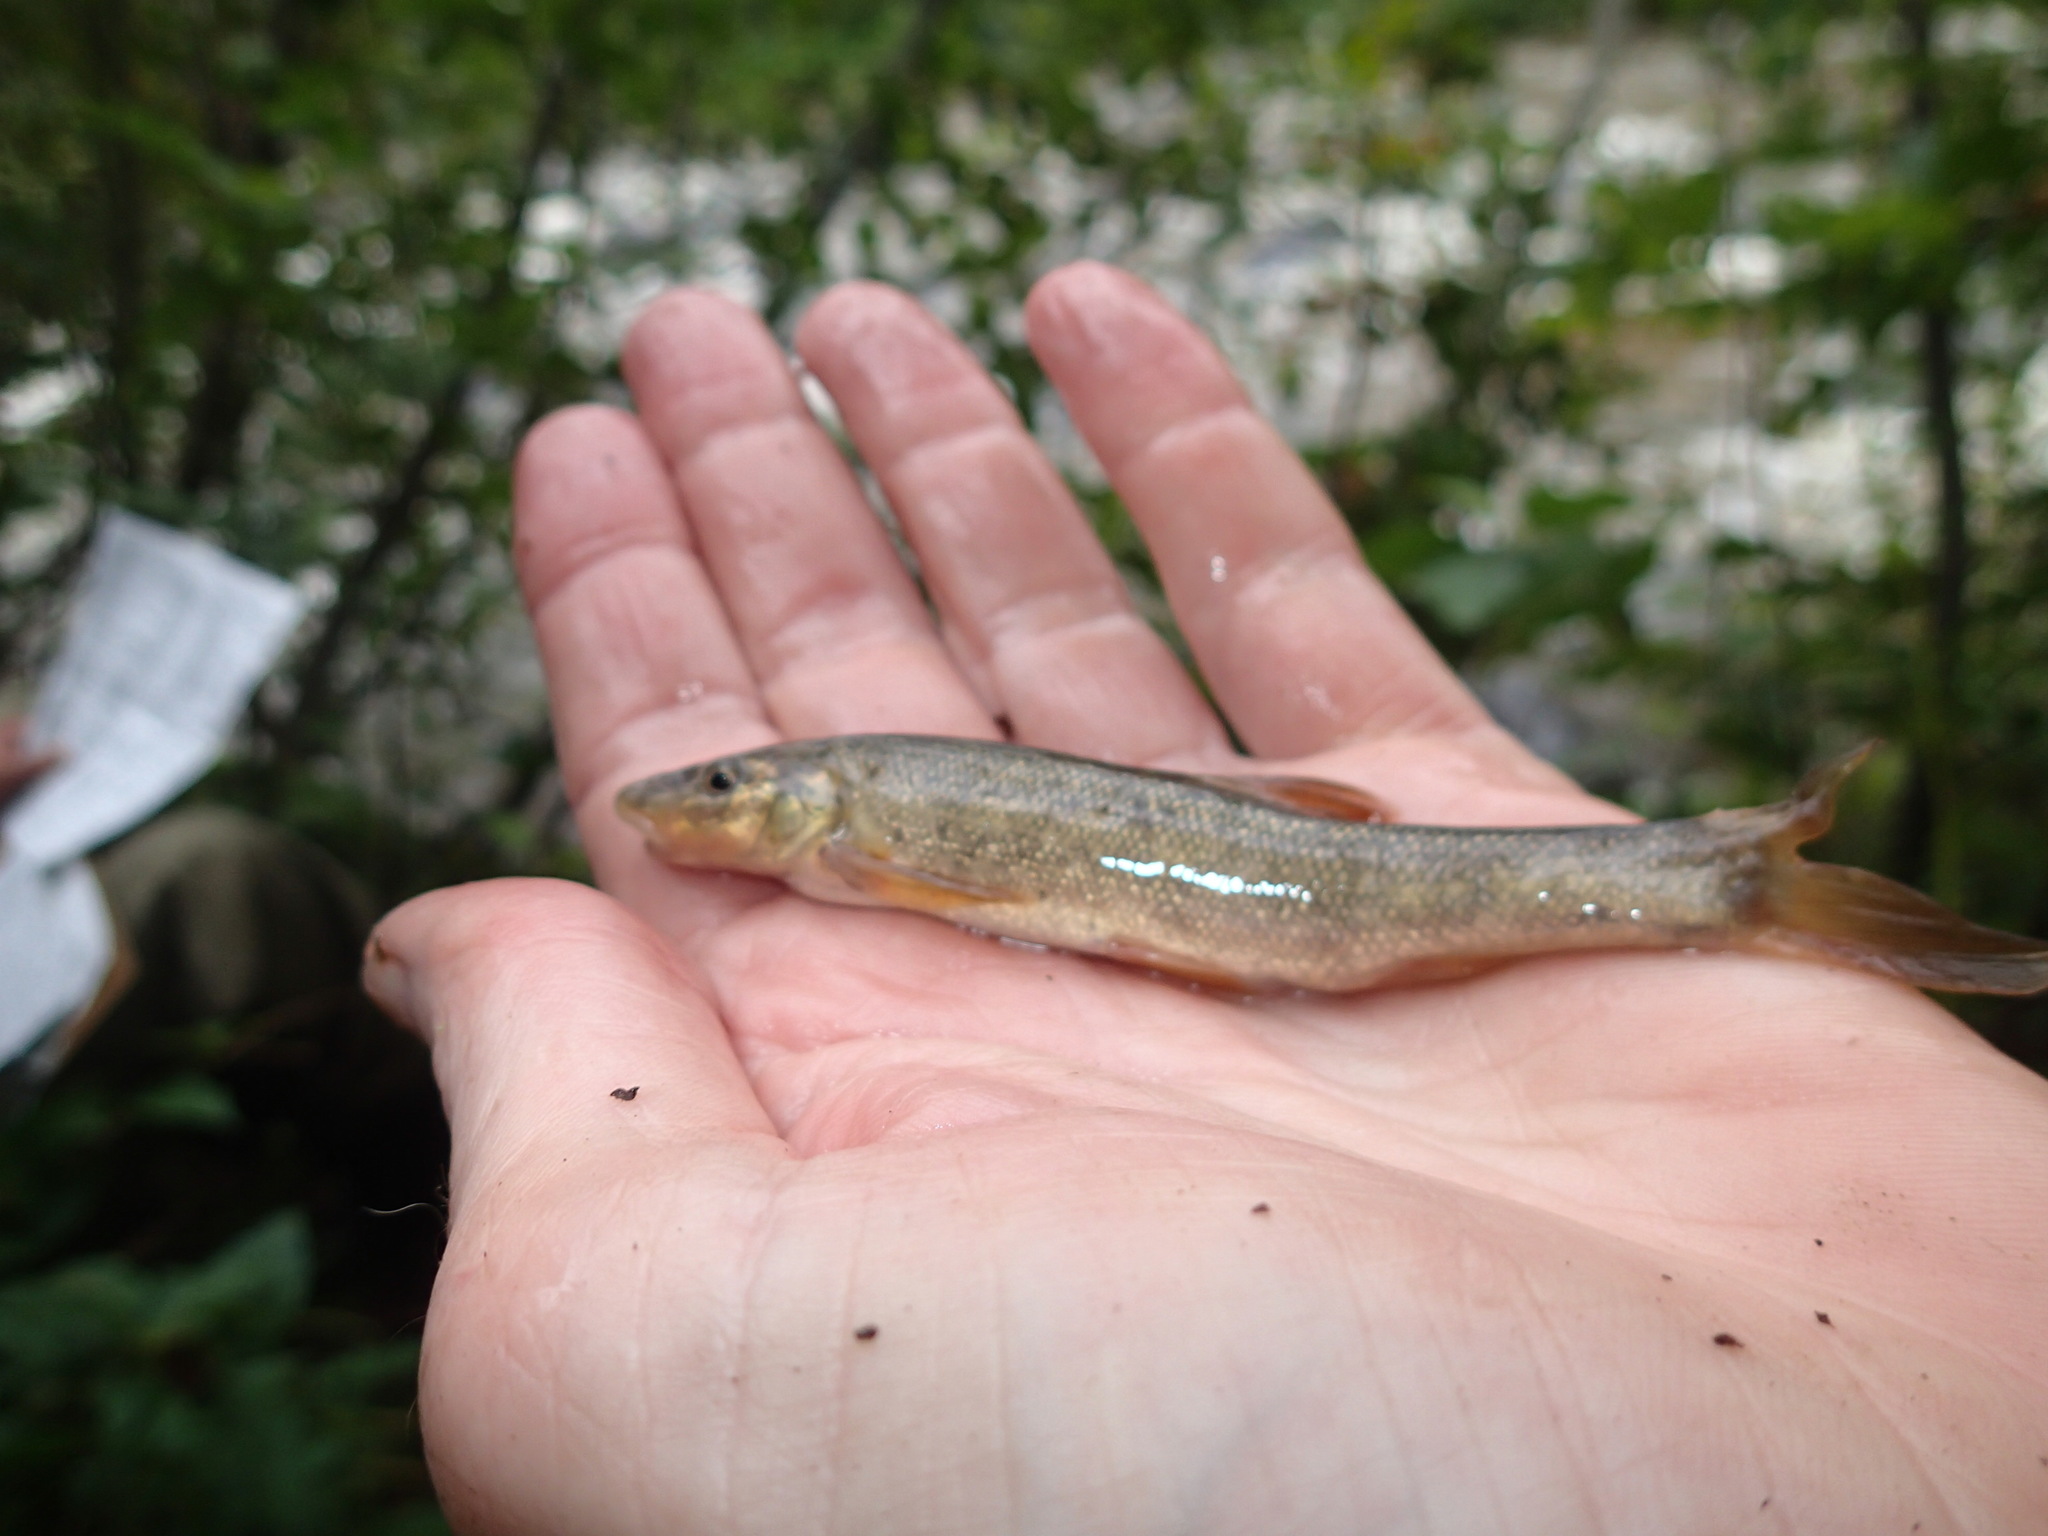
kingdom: Animalia
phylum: Chordata
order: Cypriniformes
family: Cyprinidae
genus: Rhinichthys
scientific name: Rhinichthys cataractae
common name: Longnose dace
